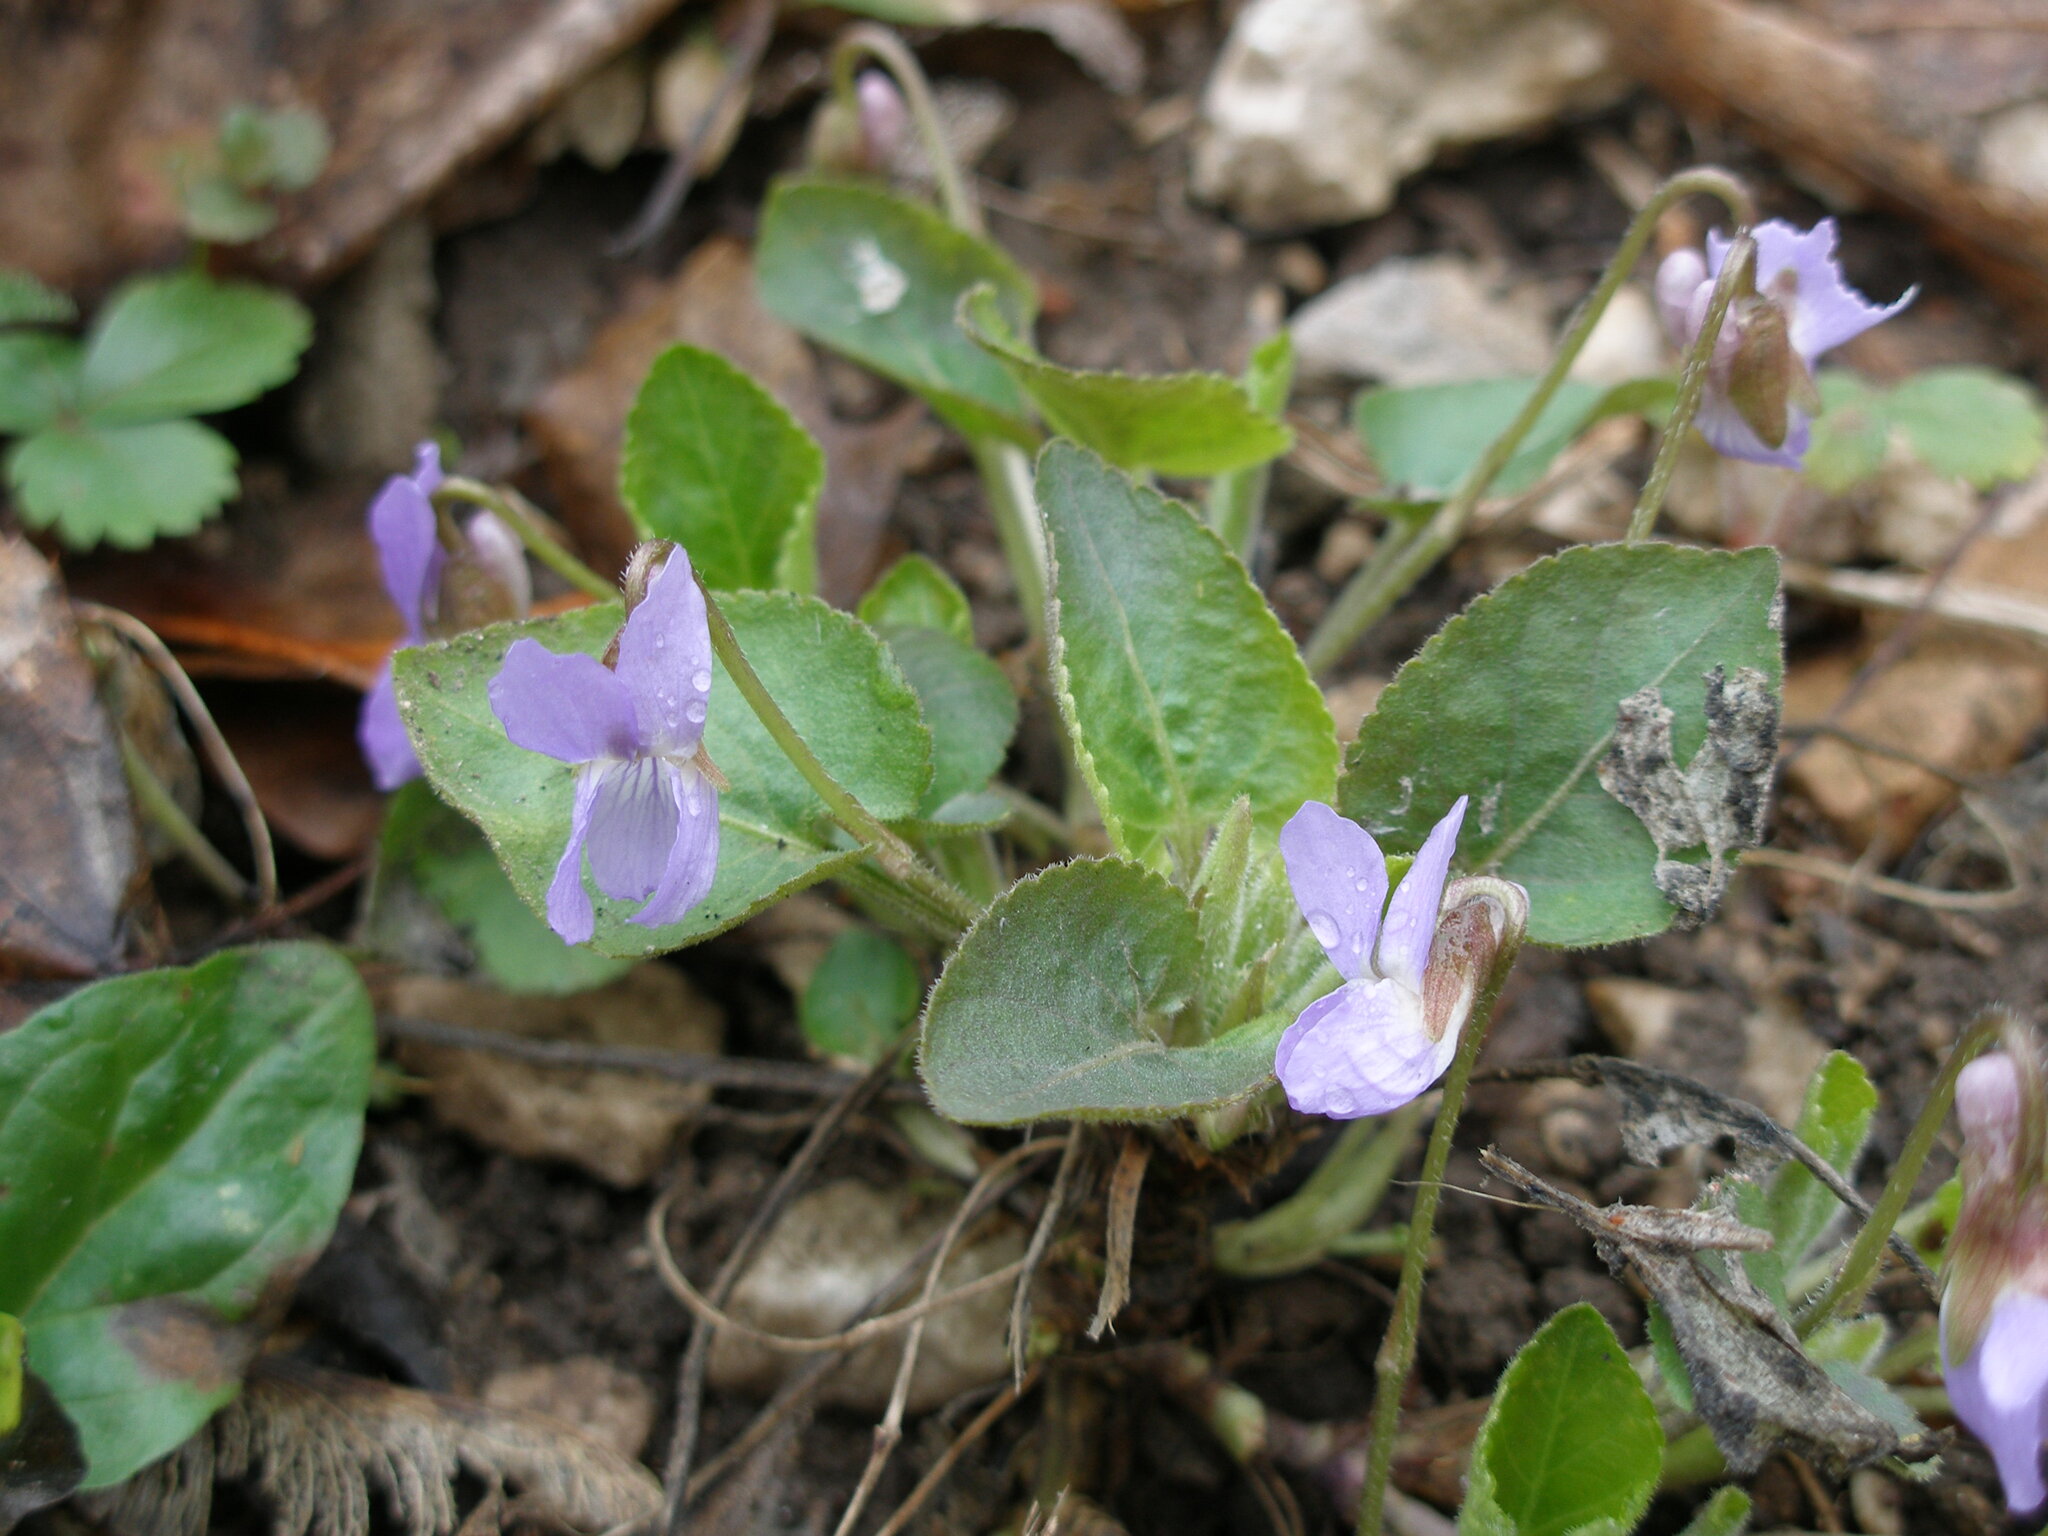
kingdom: Plantae
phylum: Tracheophyta
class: Magnoliopsida
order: Malpighiales
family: Violaceae
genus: Viola
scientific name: Viola collina
